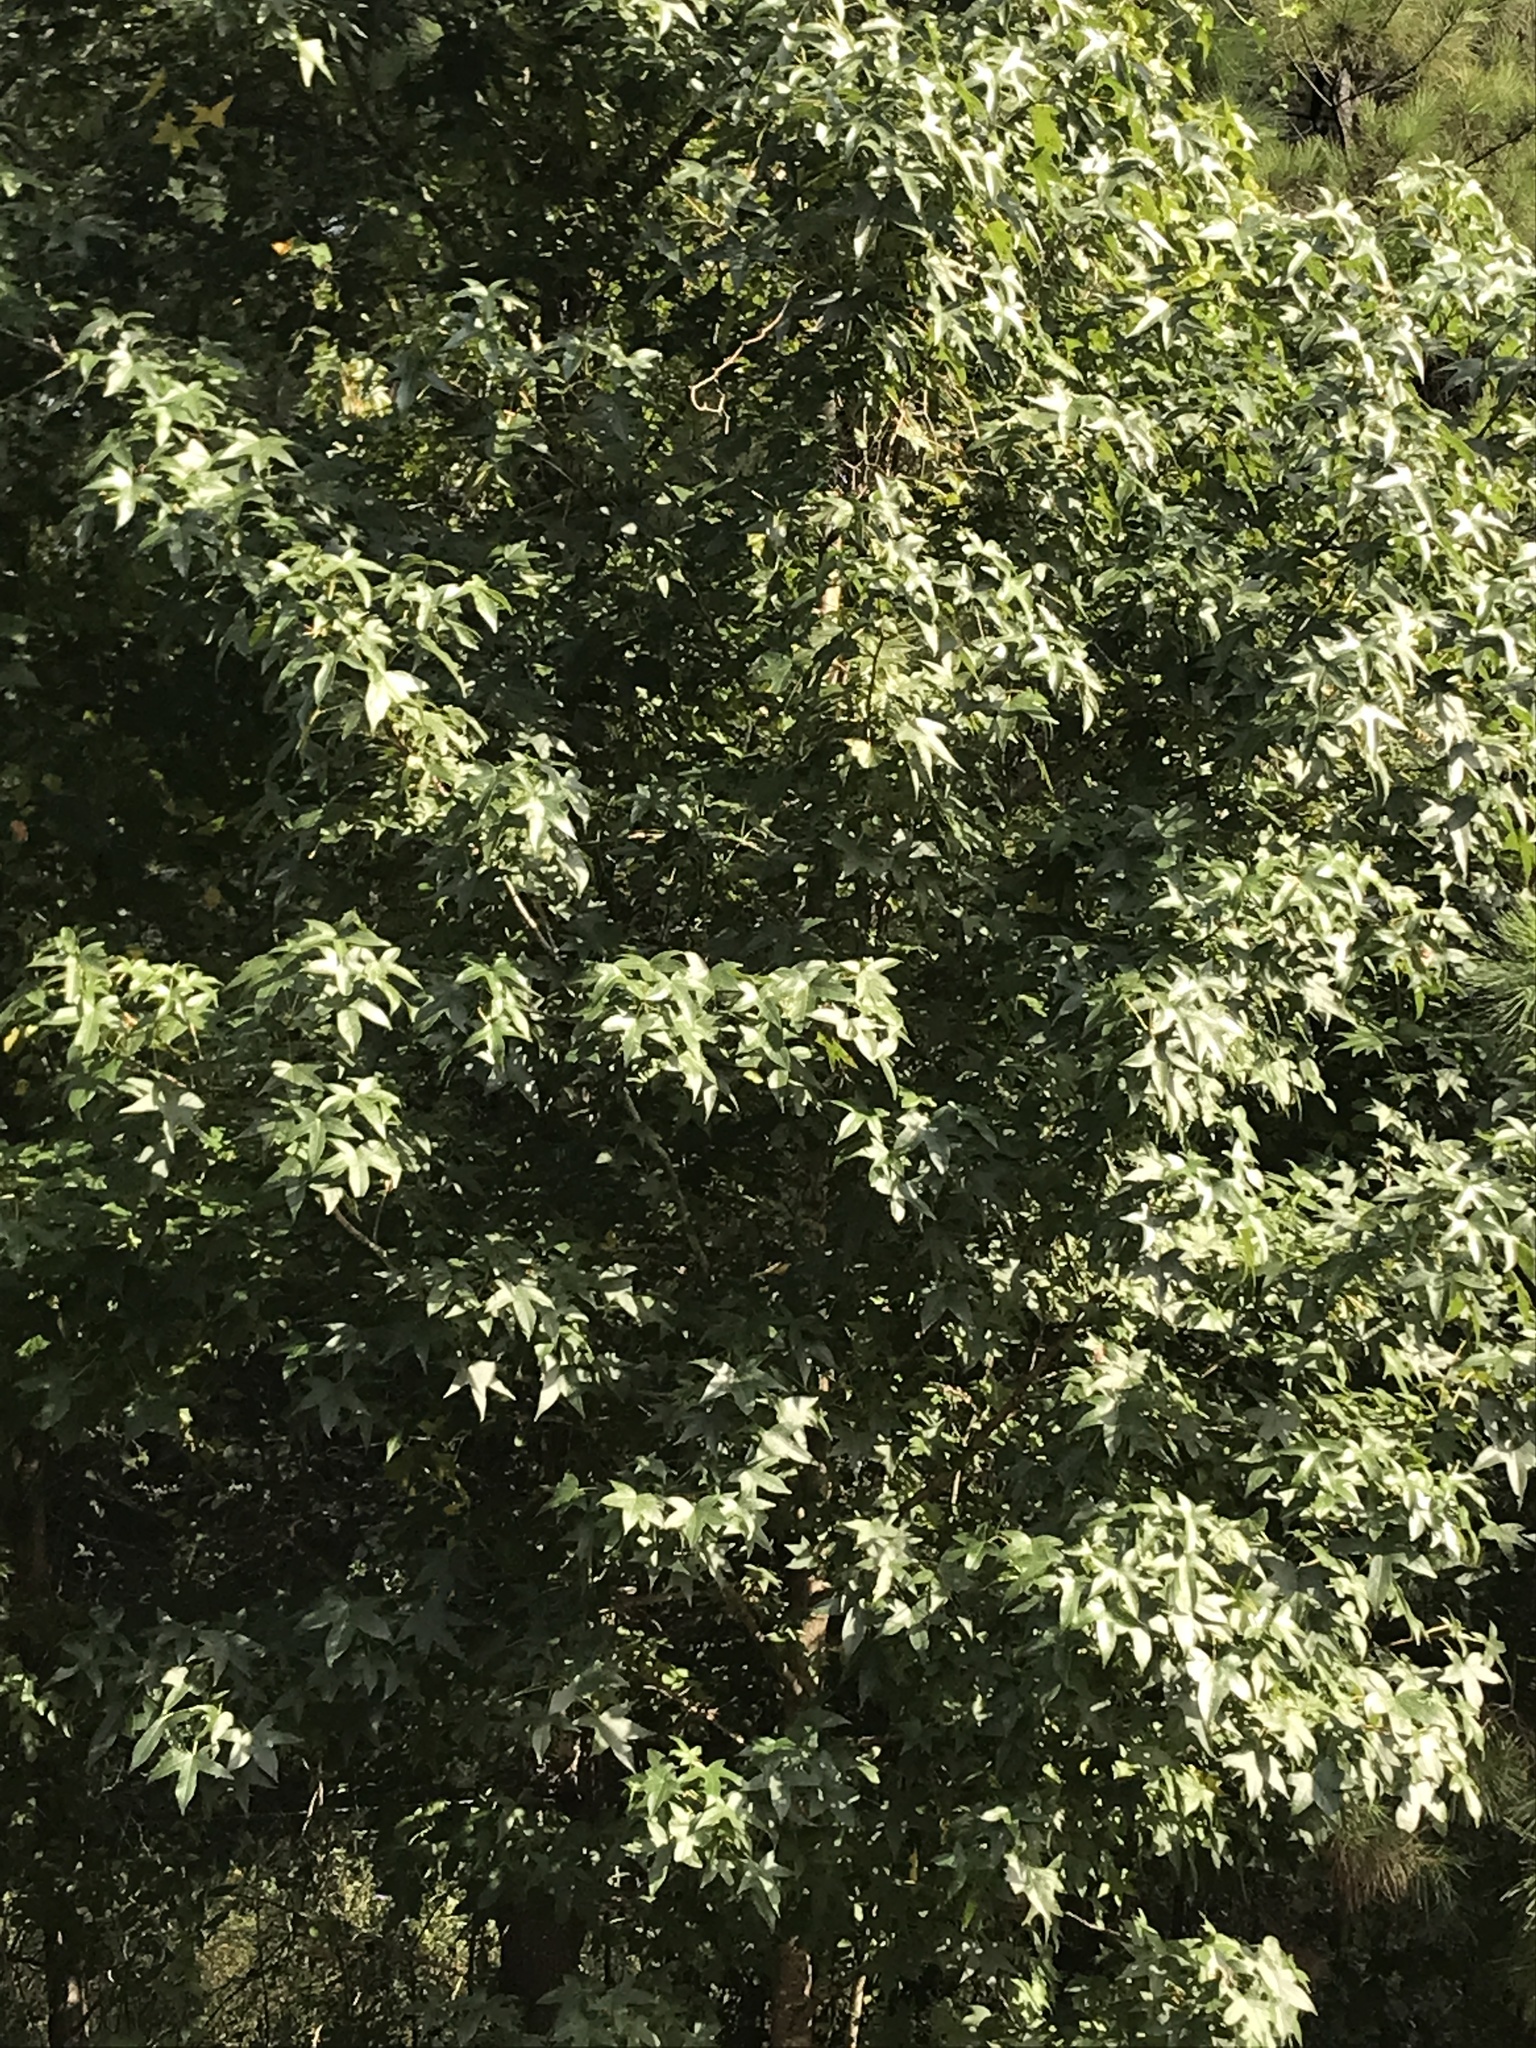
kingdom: Plantae
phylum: Tracheophyta
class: Magnoliopsida
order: Saxifragales
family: Altingiaceae
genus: Liquidambar
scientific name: Liquidambar styraciflua
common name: Sweet gum
